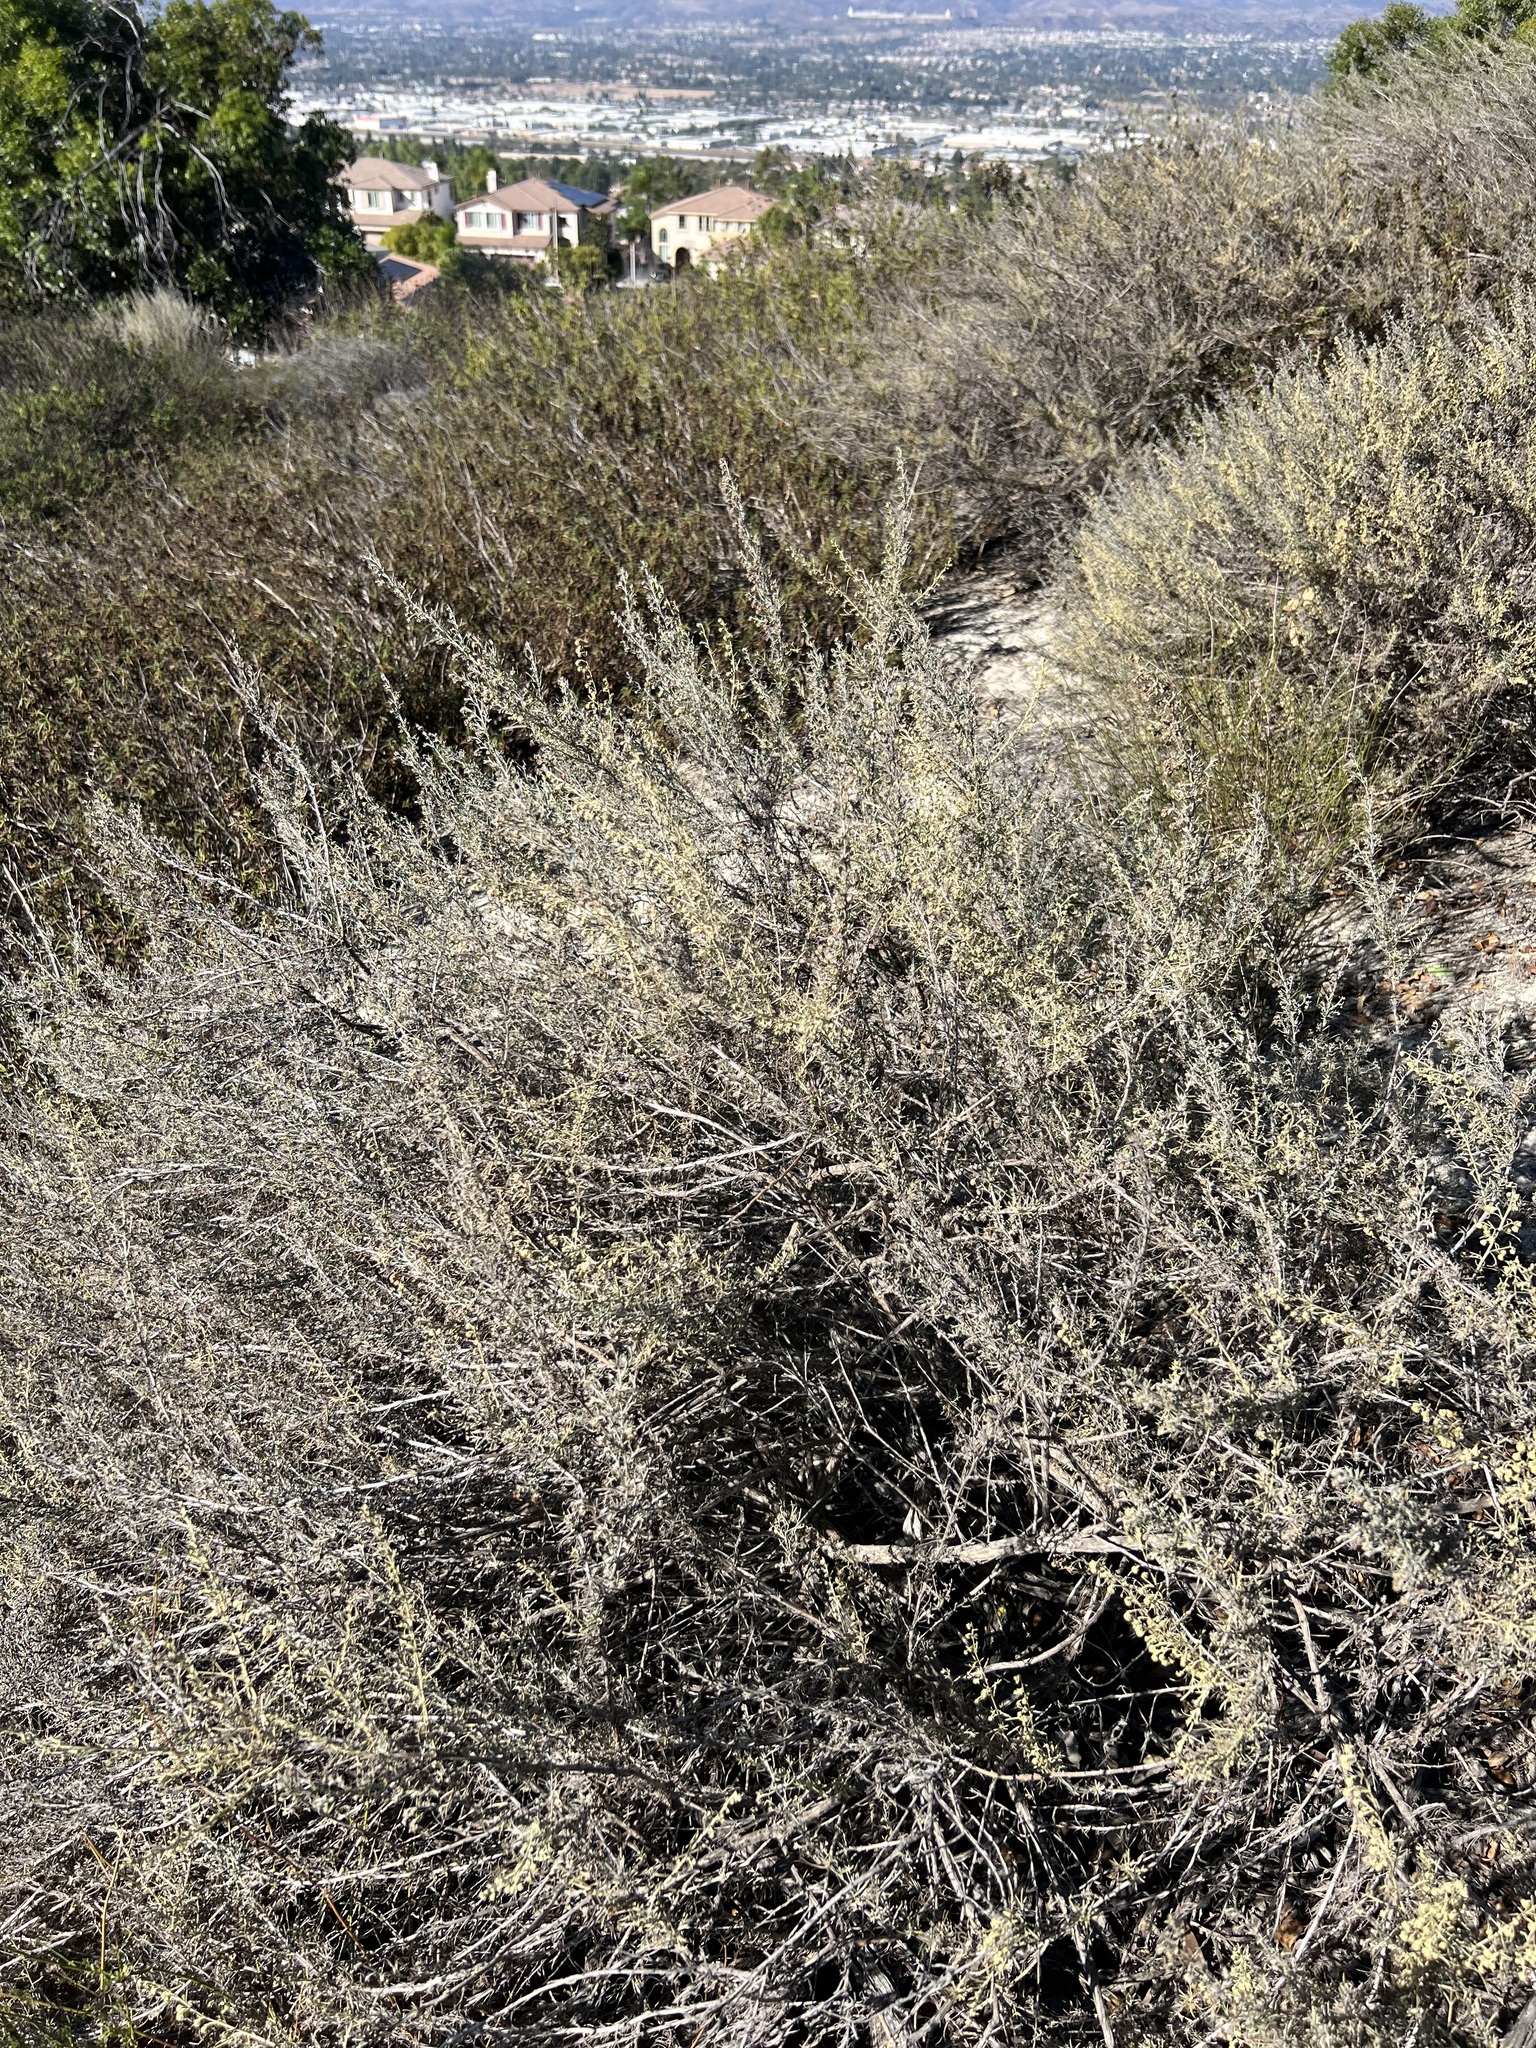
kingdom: Plantae
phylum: Tracheophyta
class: Magnoliopsida
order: Asterales
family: Asteraceae
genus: Artemisia
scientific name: Artemisia californica
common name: California sagebrush
